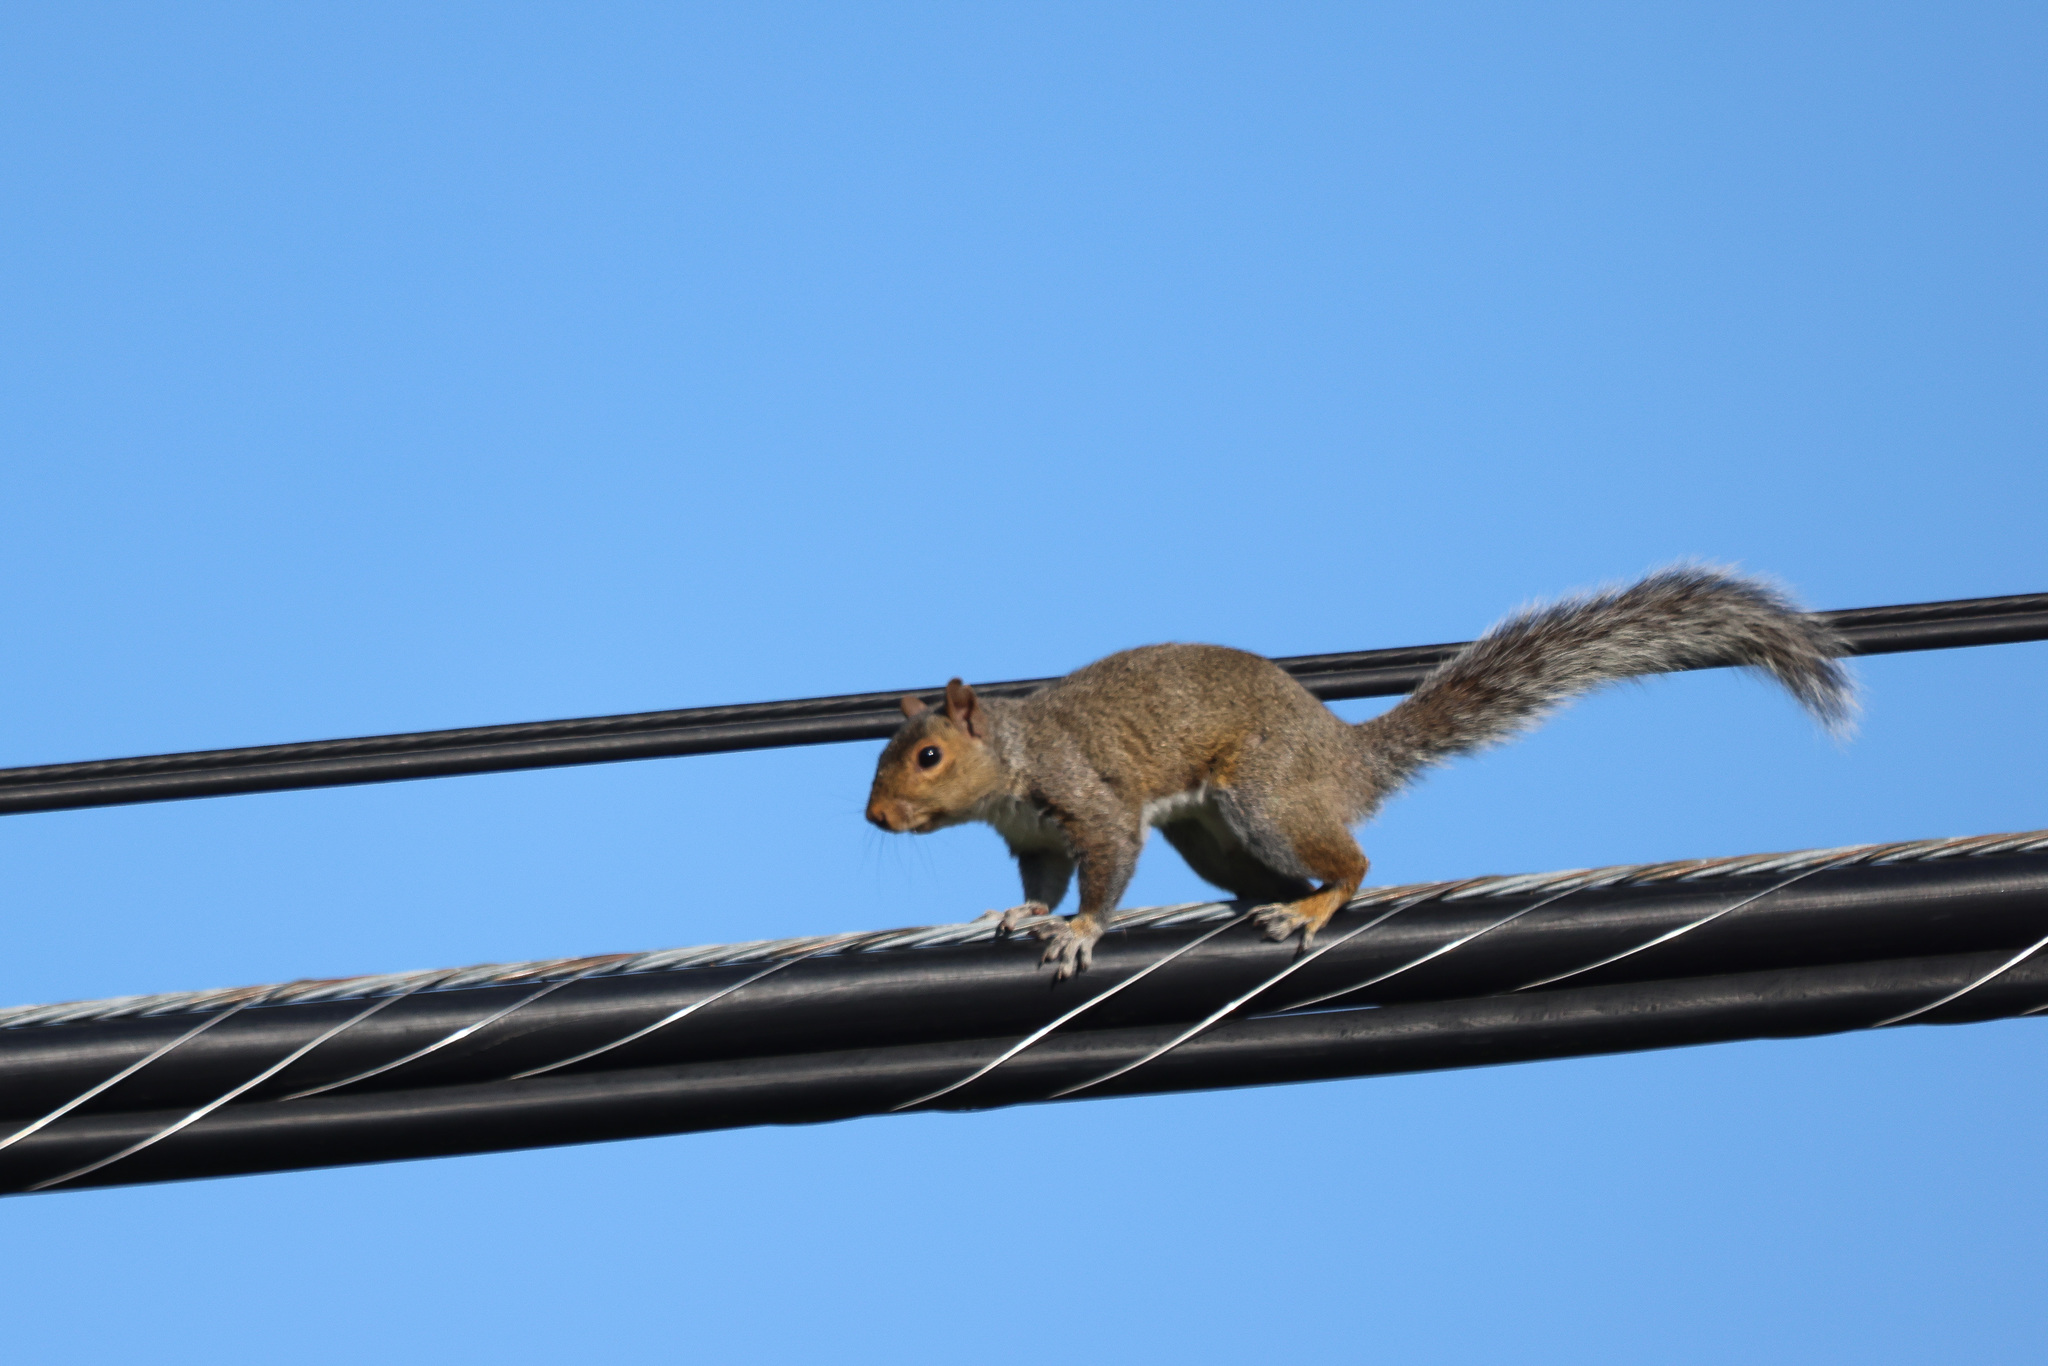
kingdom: Animalia
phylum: Chordata
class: Mammalia
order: Rodentia
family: Sciuridae
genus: Sciurus
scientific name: Sciurus carolinensis
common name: Eastern gray squirrel
